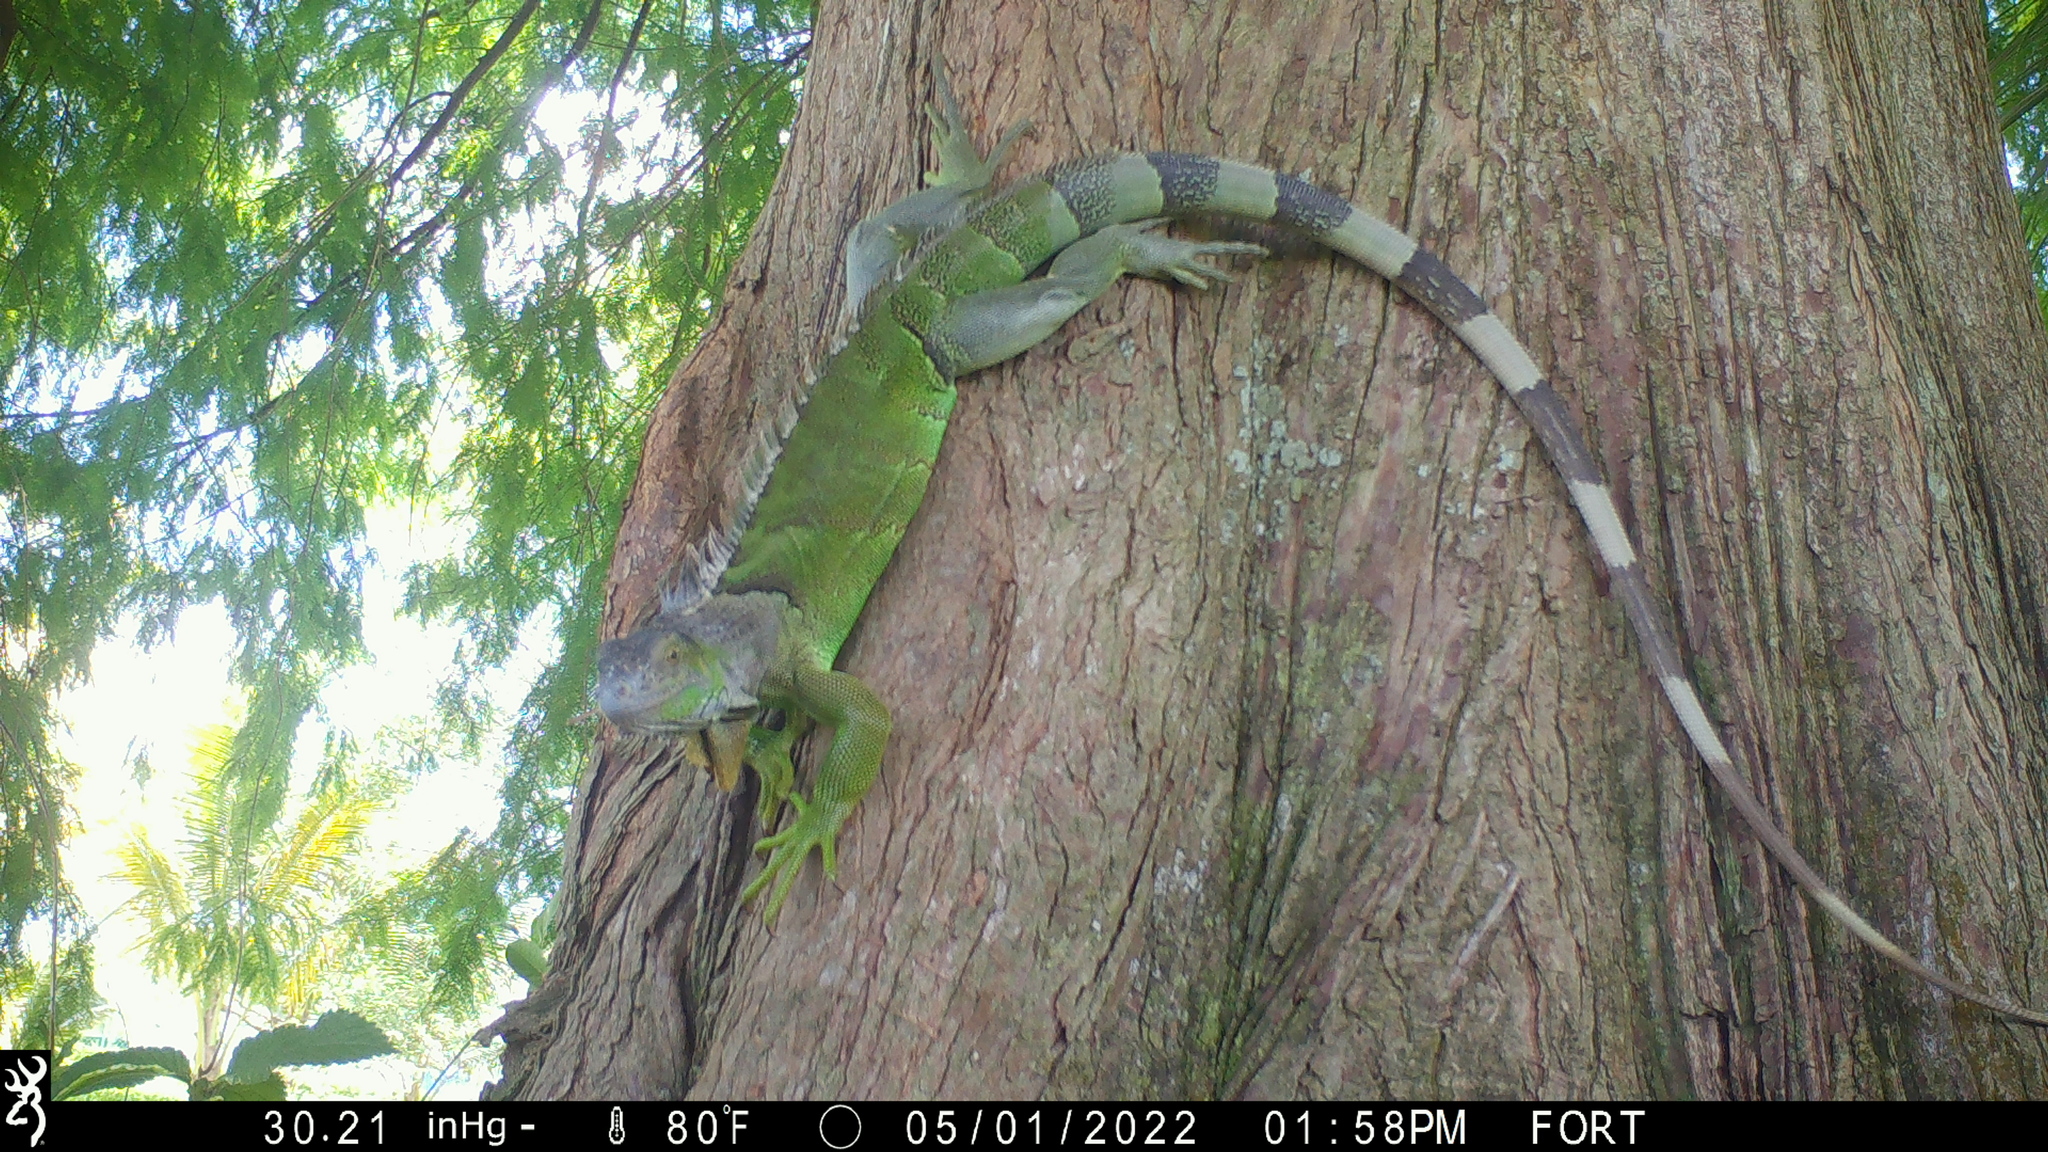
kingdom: Animalia
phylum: Chordata
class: Squamata
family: Iguanidae
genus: Iguana
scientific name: Iguana iguana
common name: Green iguana
